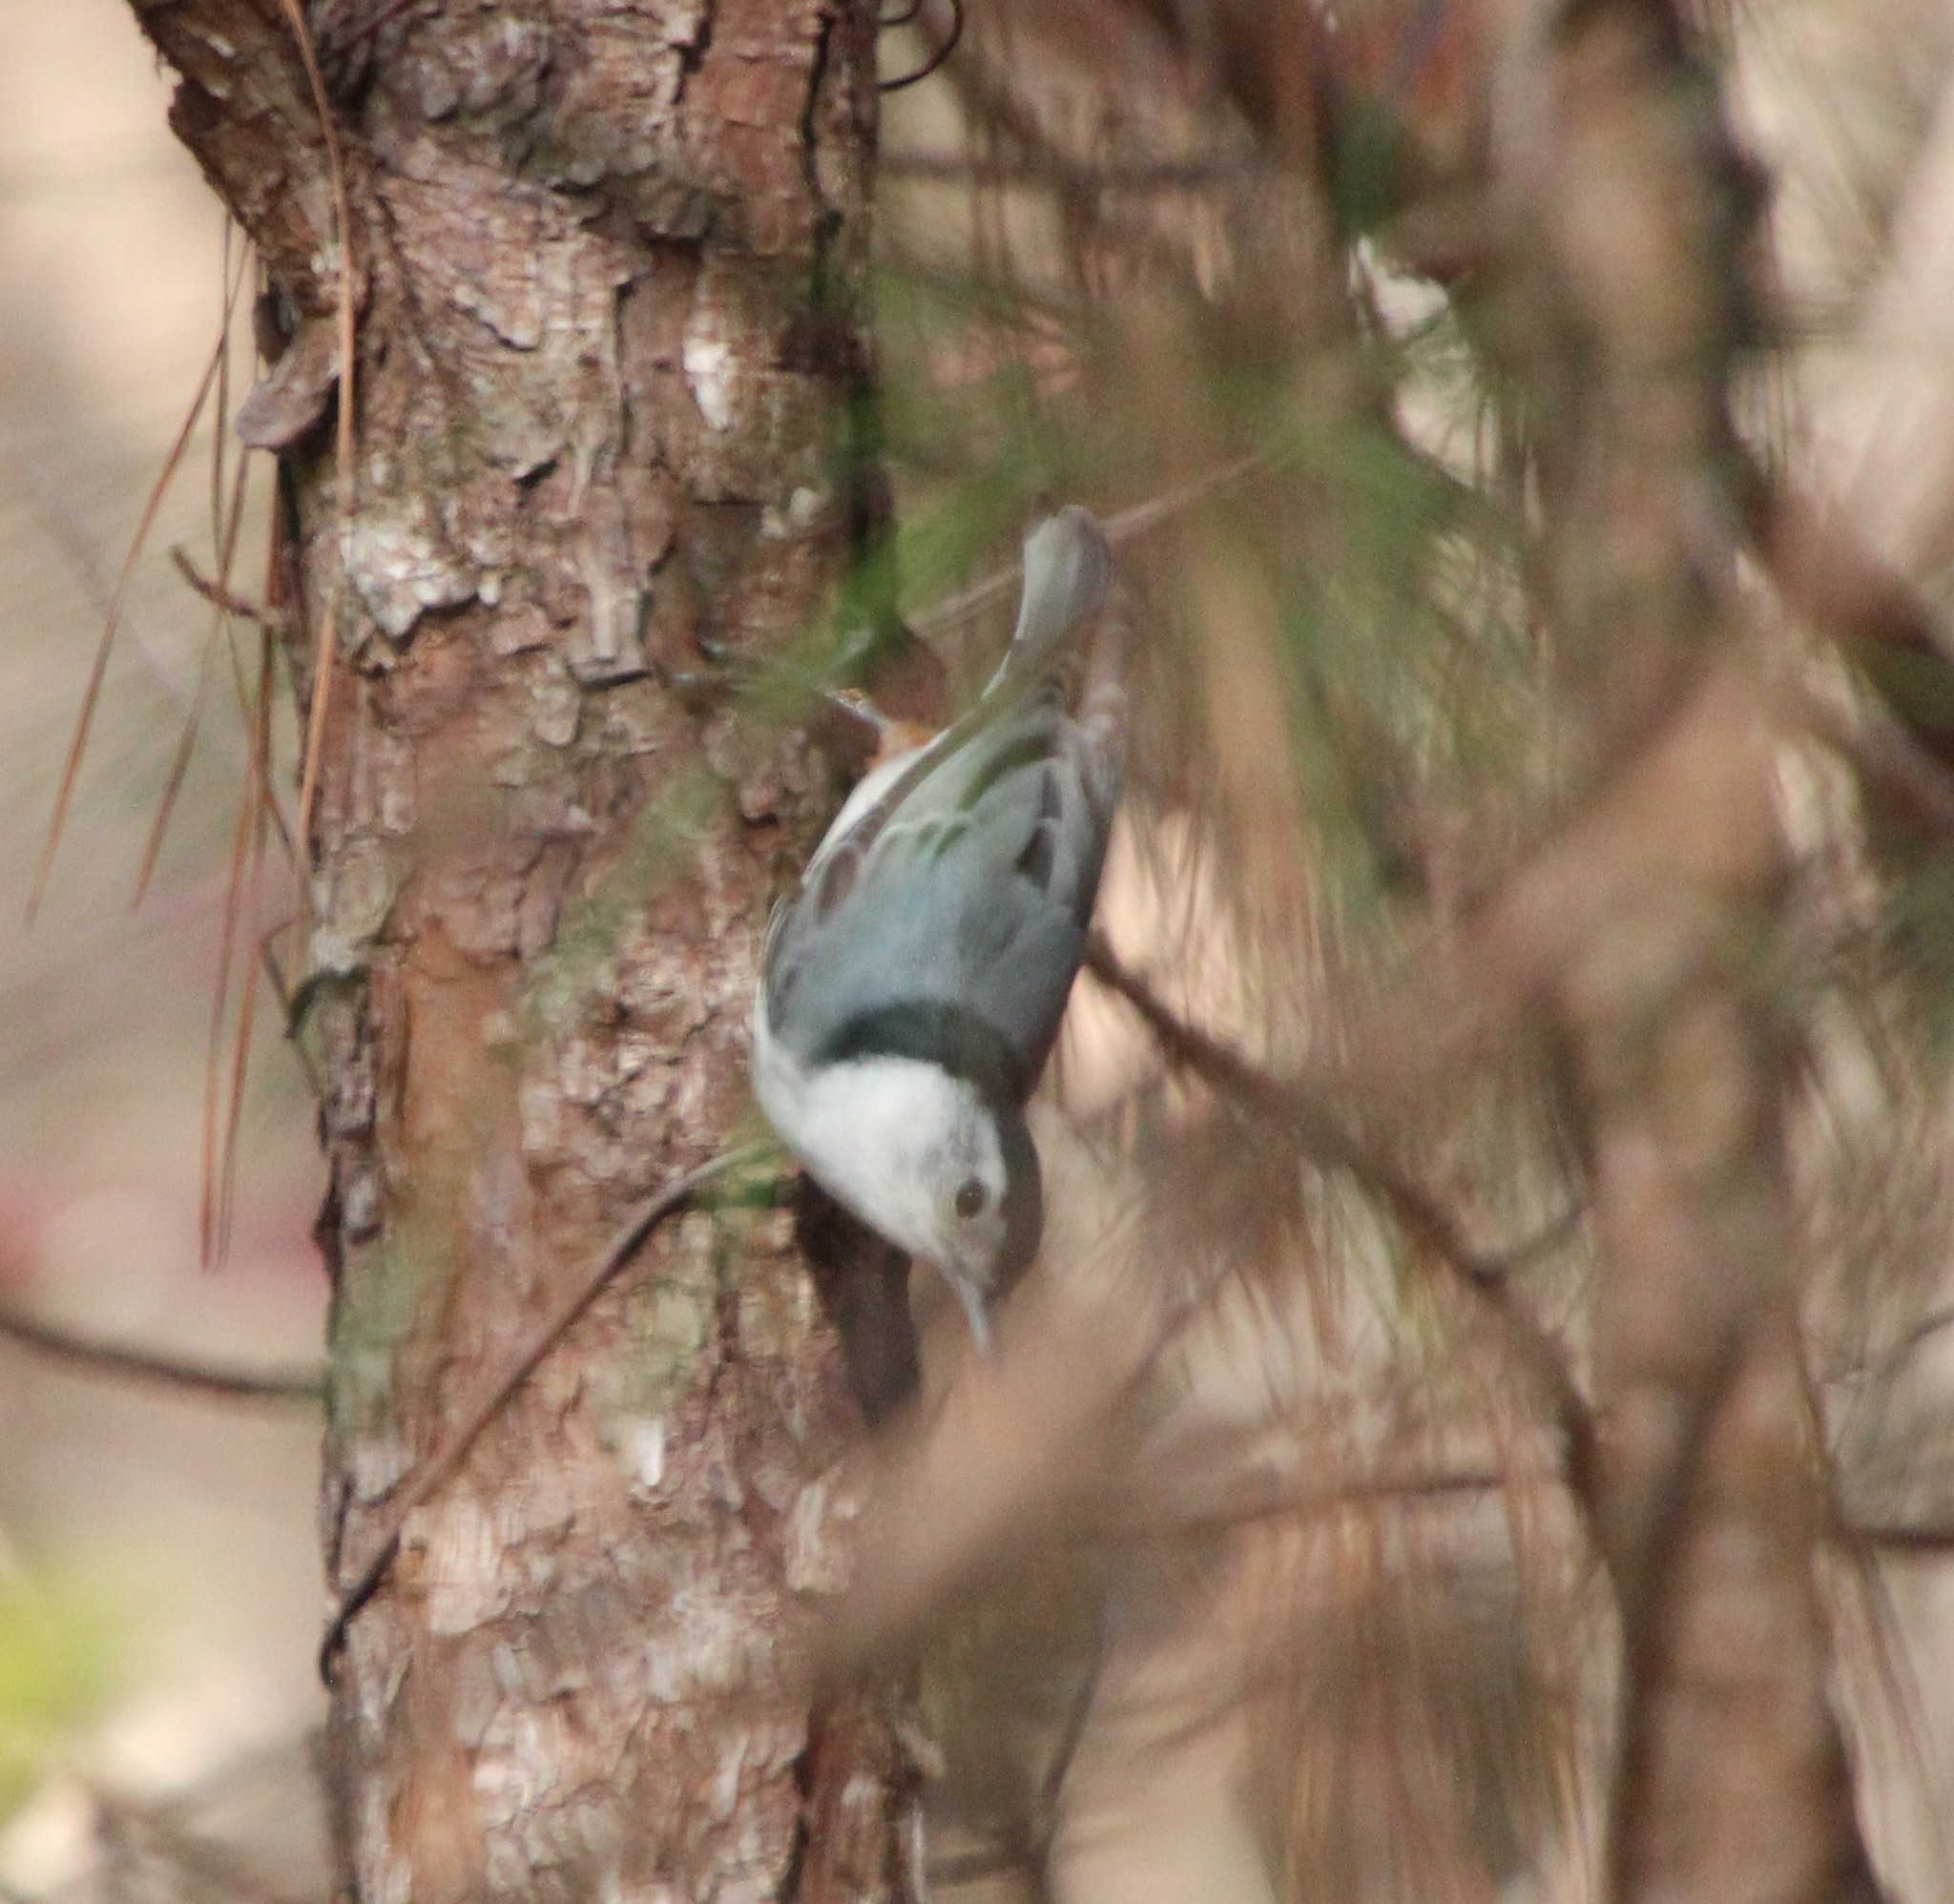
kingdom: Animalia
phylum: Chordata
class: Aves
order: Passeriformes
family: Sittidae
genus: Sitta
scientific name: Sitta carolinensis
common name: White-breasted nuthatch
